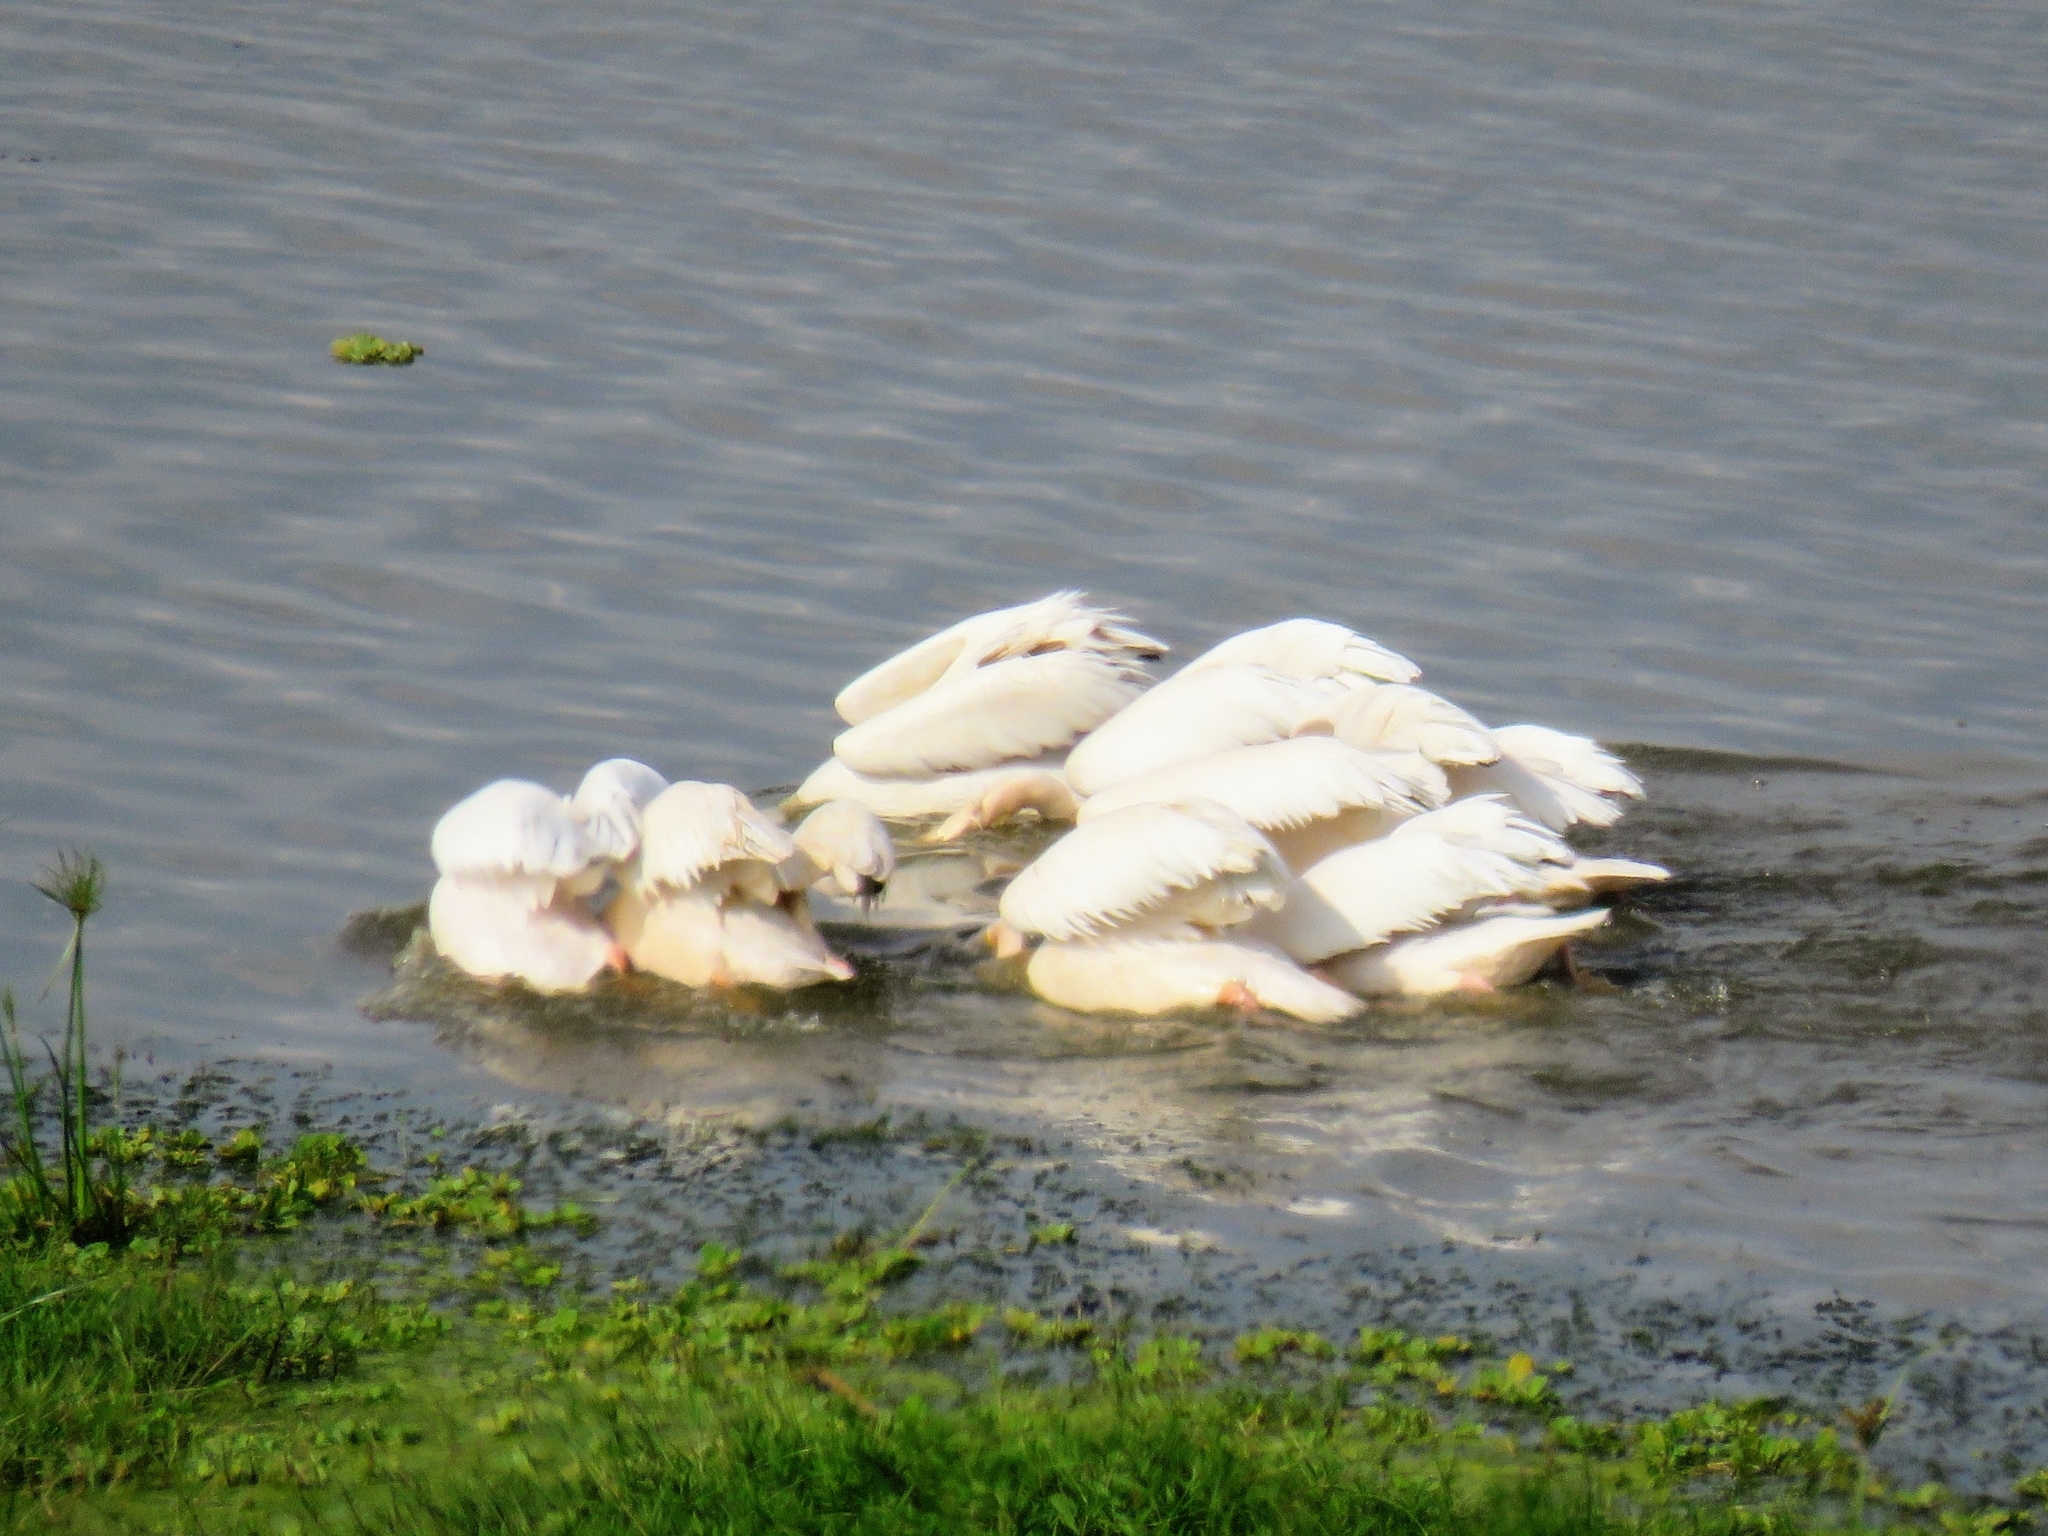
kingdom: Animalia
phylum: Chordata
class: Aves
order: Pelecaniformes
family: Pelecanidae
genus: Pelecanus
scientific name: Pelecanus onocrotalus
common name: Great white pelican
